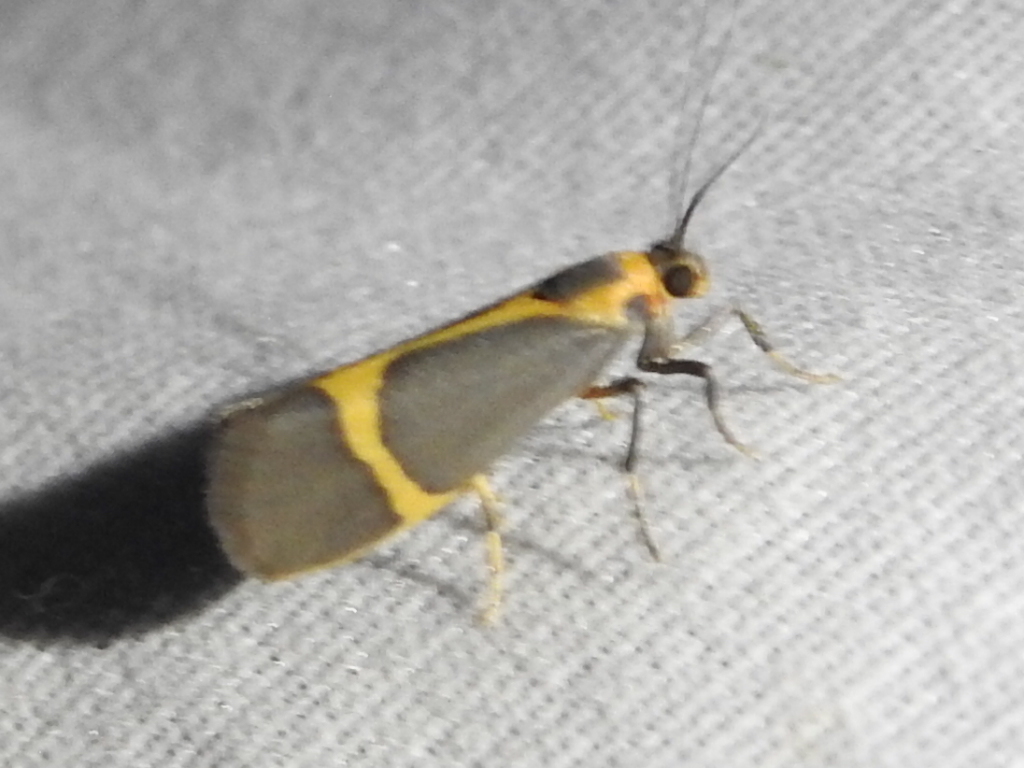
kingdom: Animalia
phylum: Arthropoda
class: Insecta
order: Lepidoptera
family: Erebidae
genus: Cisthene
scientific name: Cisthene barnesii
